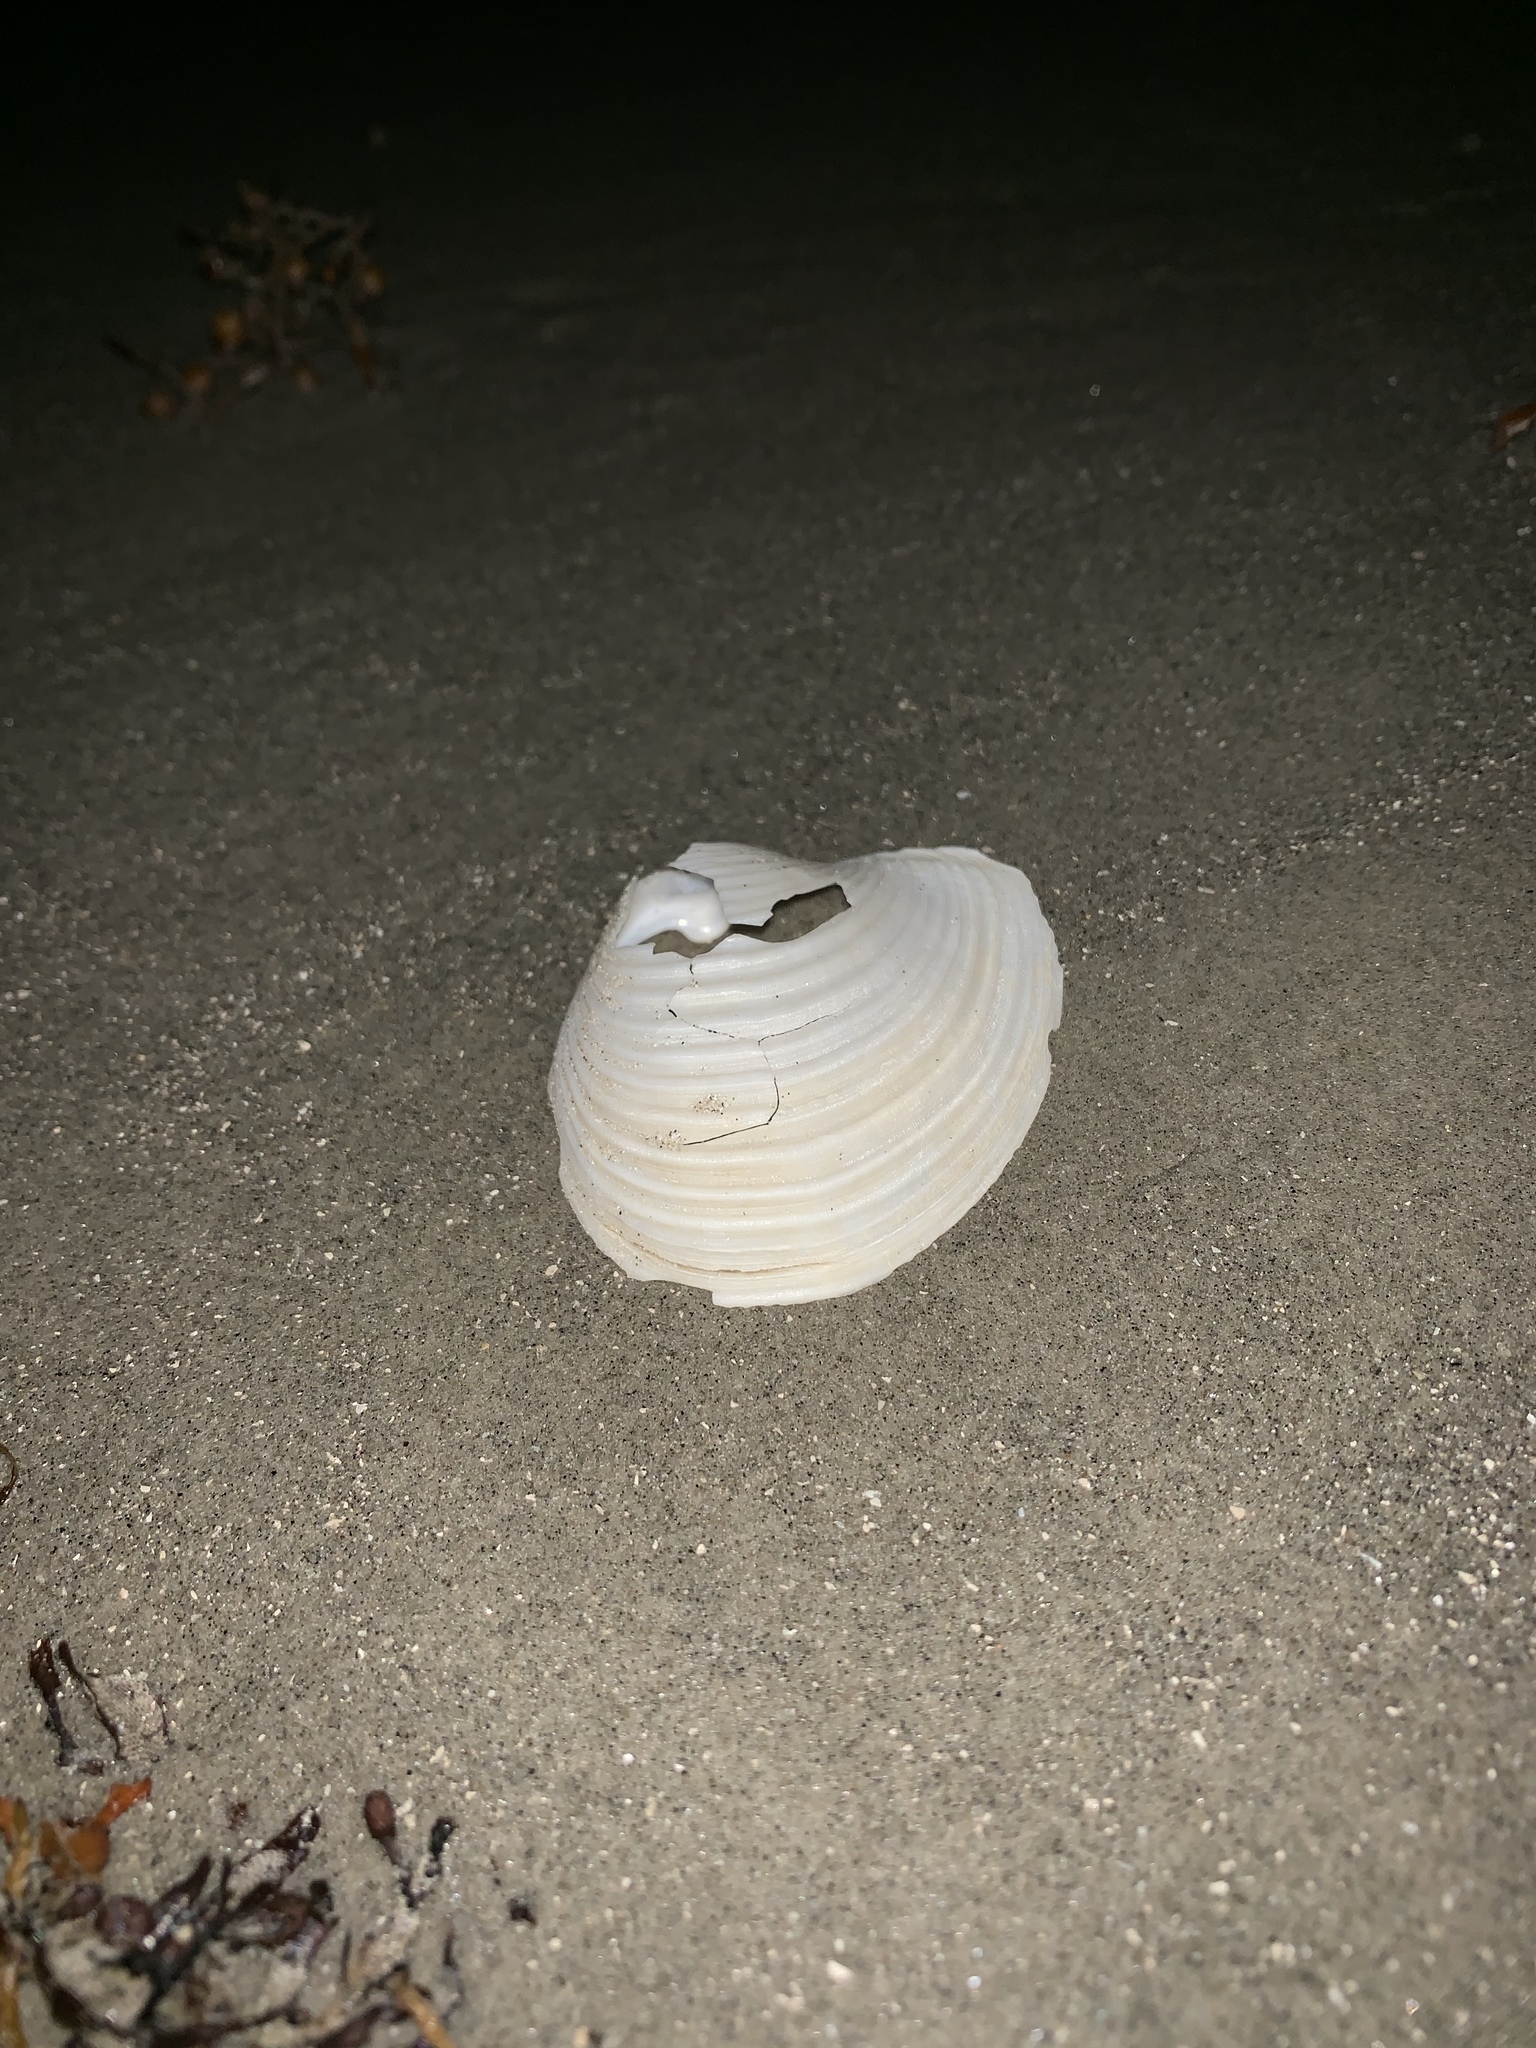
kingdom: Animalia
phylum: Mollusca
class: Bivalvia
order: Venerida
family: Anatinellidae
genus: Raeta
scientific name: Raeta plicatella
